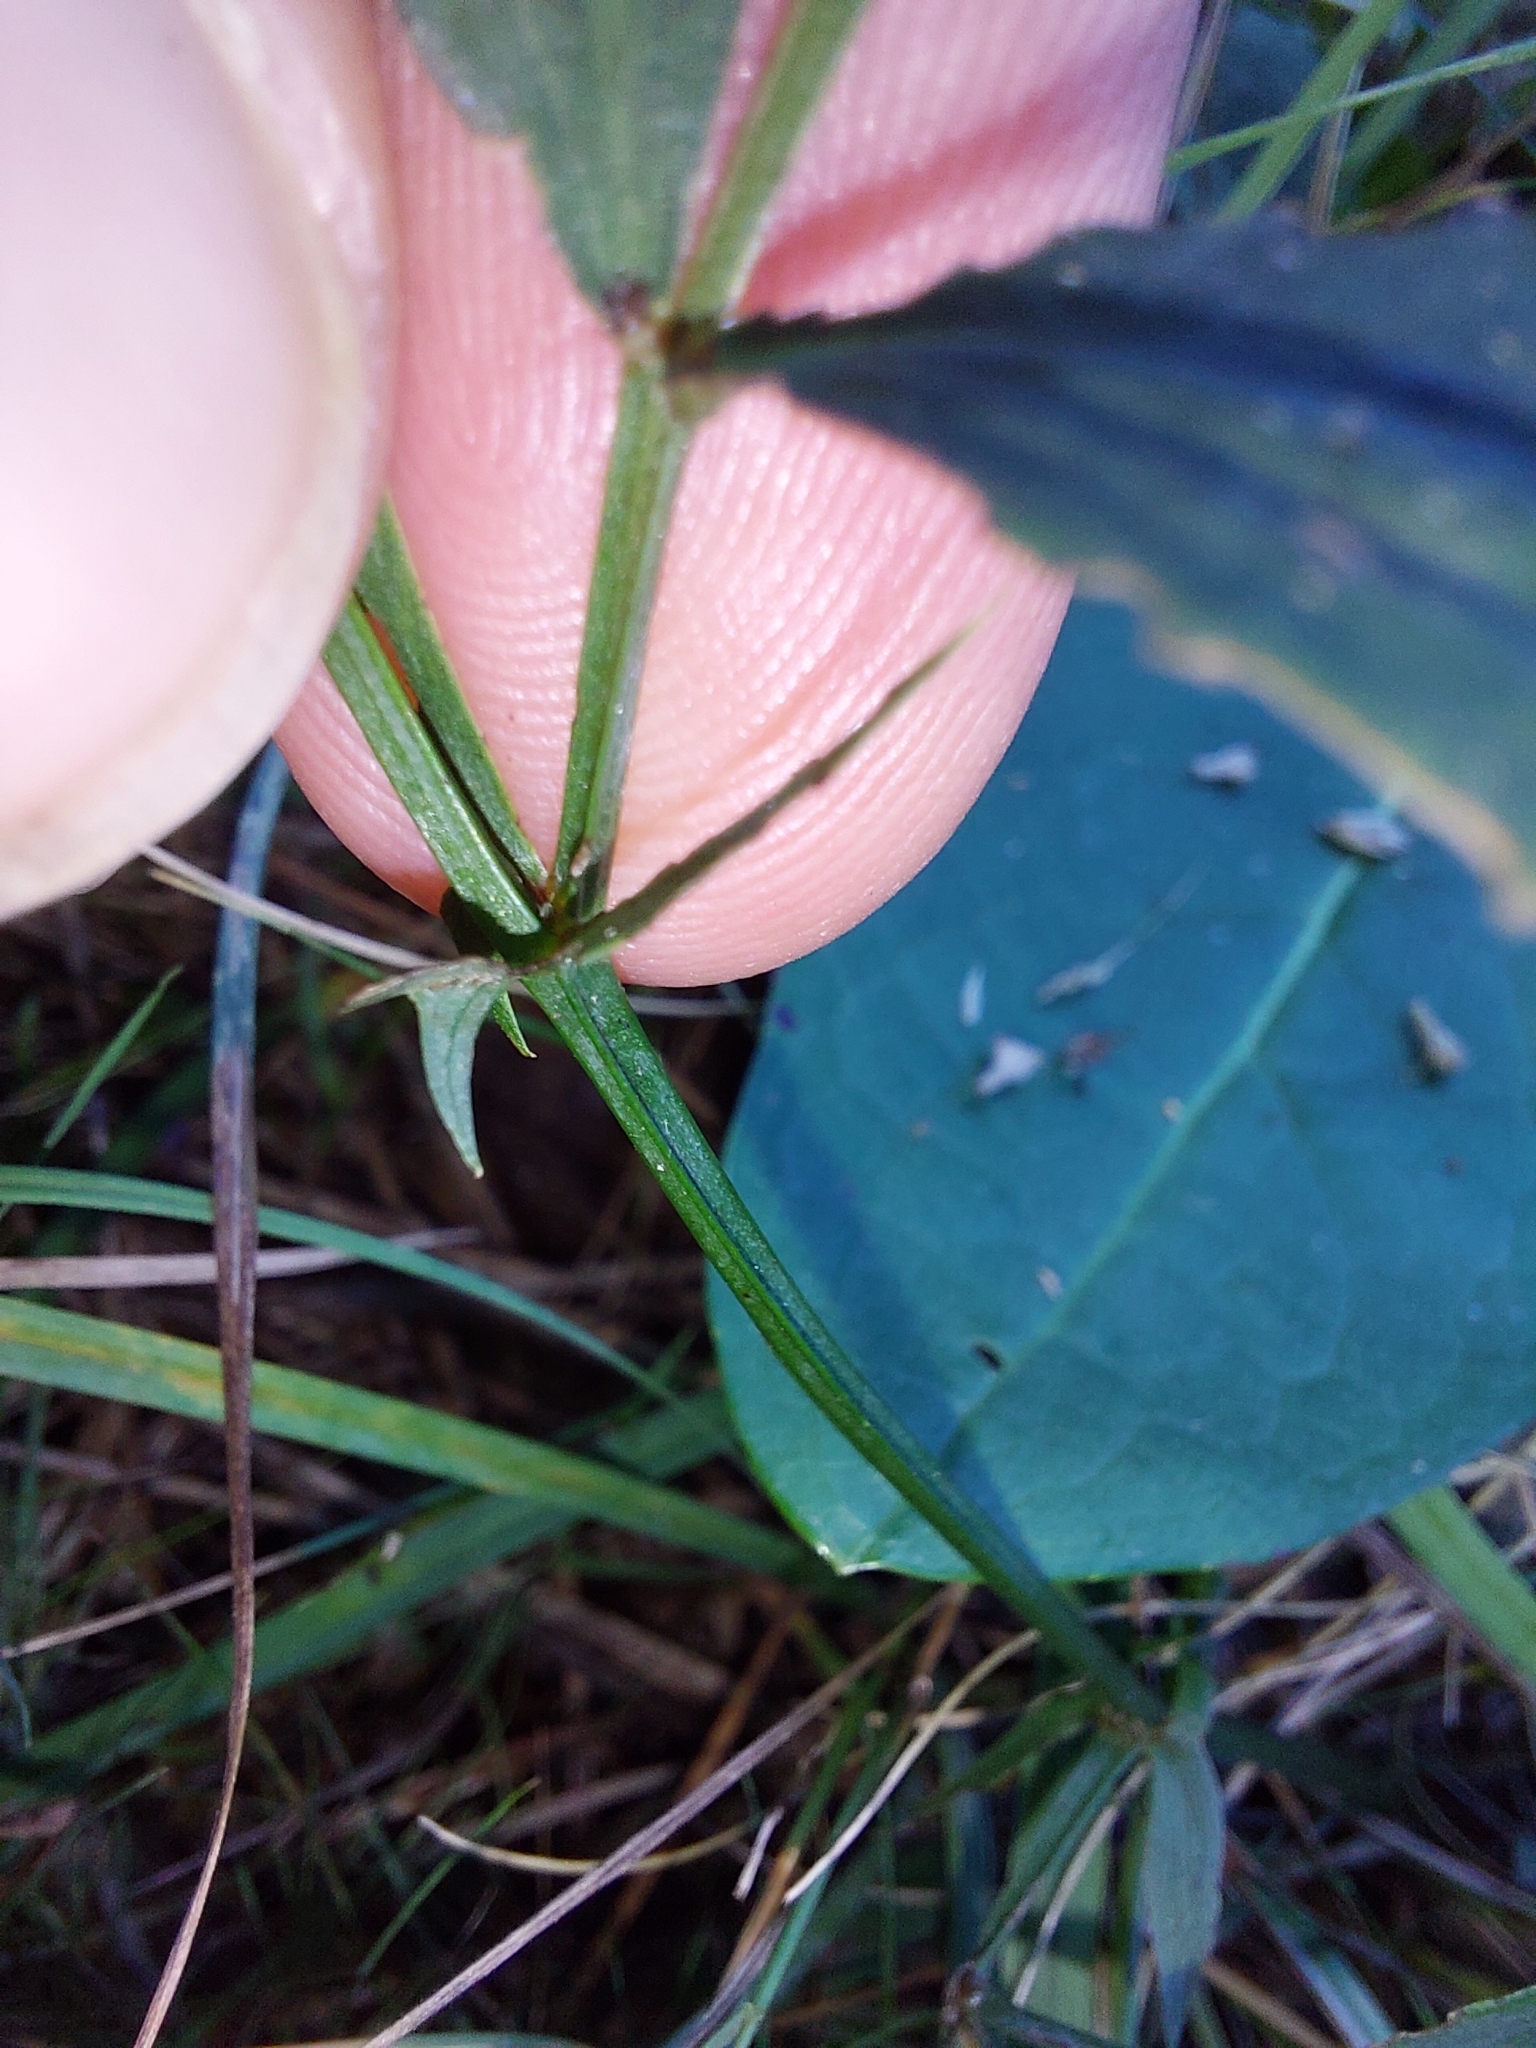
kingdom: Plantae
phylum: Tracheophyta
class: Magnoliopsida
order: Fabales
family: Fabaceae
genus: Lathyrus
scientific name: Lathyrus linifolius
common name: Bitter-vetch
